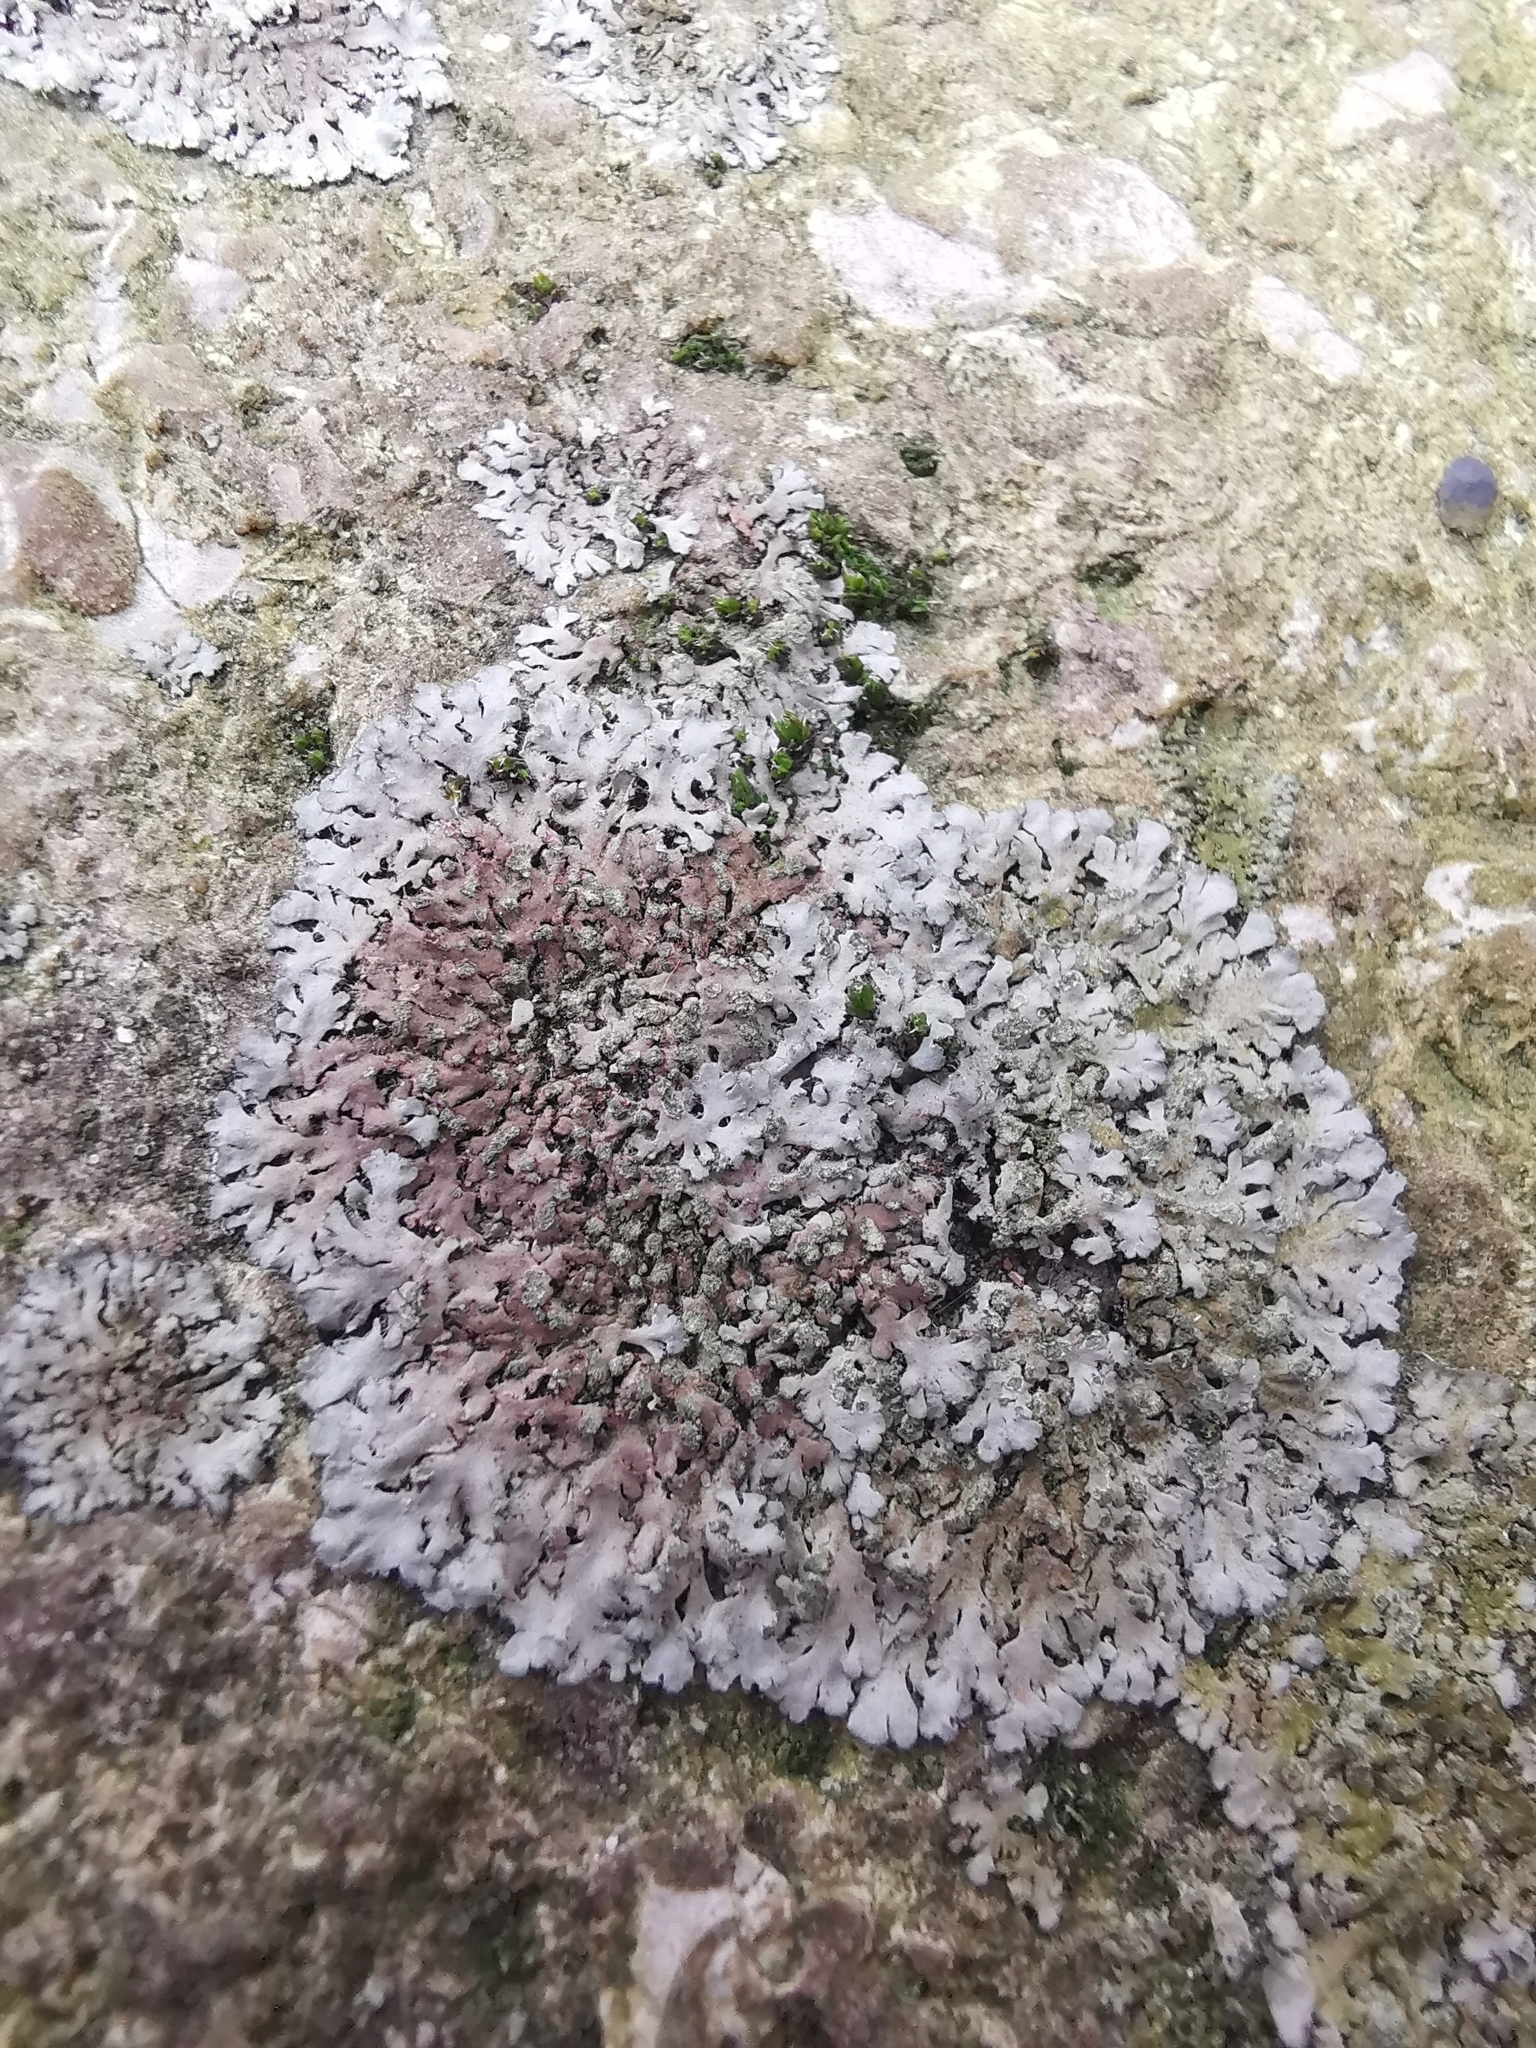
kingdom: Fungi
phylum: Ascomycota
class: Lecanoromycetes
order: Caliciales
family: Physciaceae
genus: Phaeophyscia
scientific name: Phaeophyscia orbicularis
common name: Mealy shadow lichen
